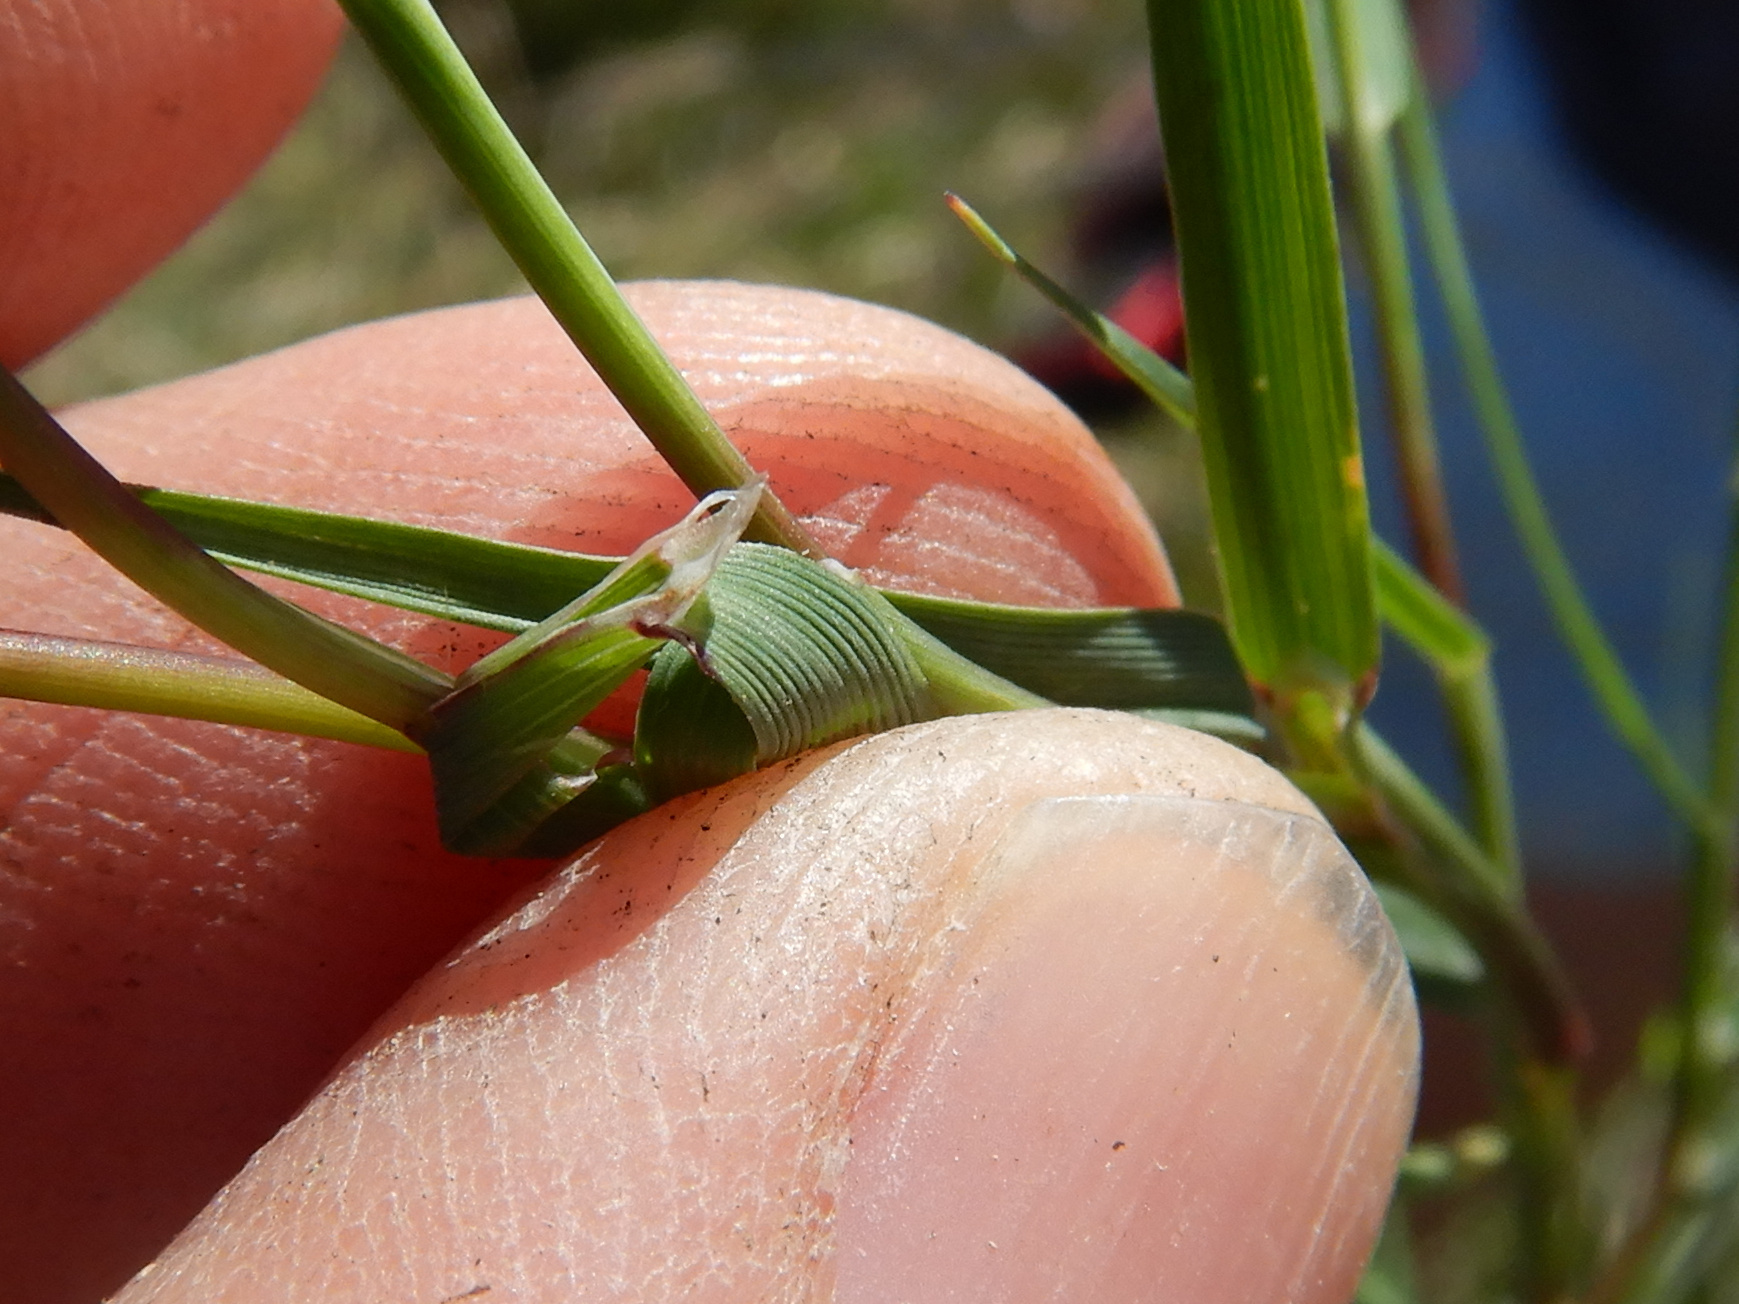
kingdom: Plantae
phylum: Tracheophyta
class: Liliopsida
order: Poales
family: Poaceae
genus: Agrostis
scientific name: Agrostis stolonifera
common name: Creeping bentgrass
